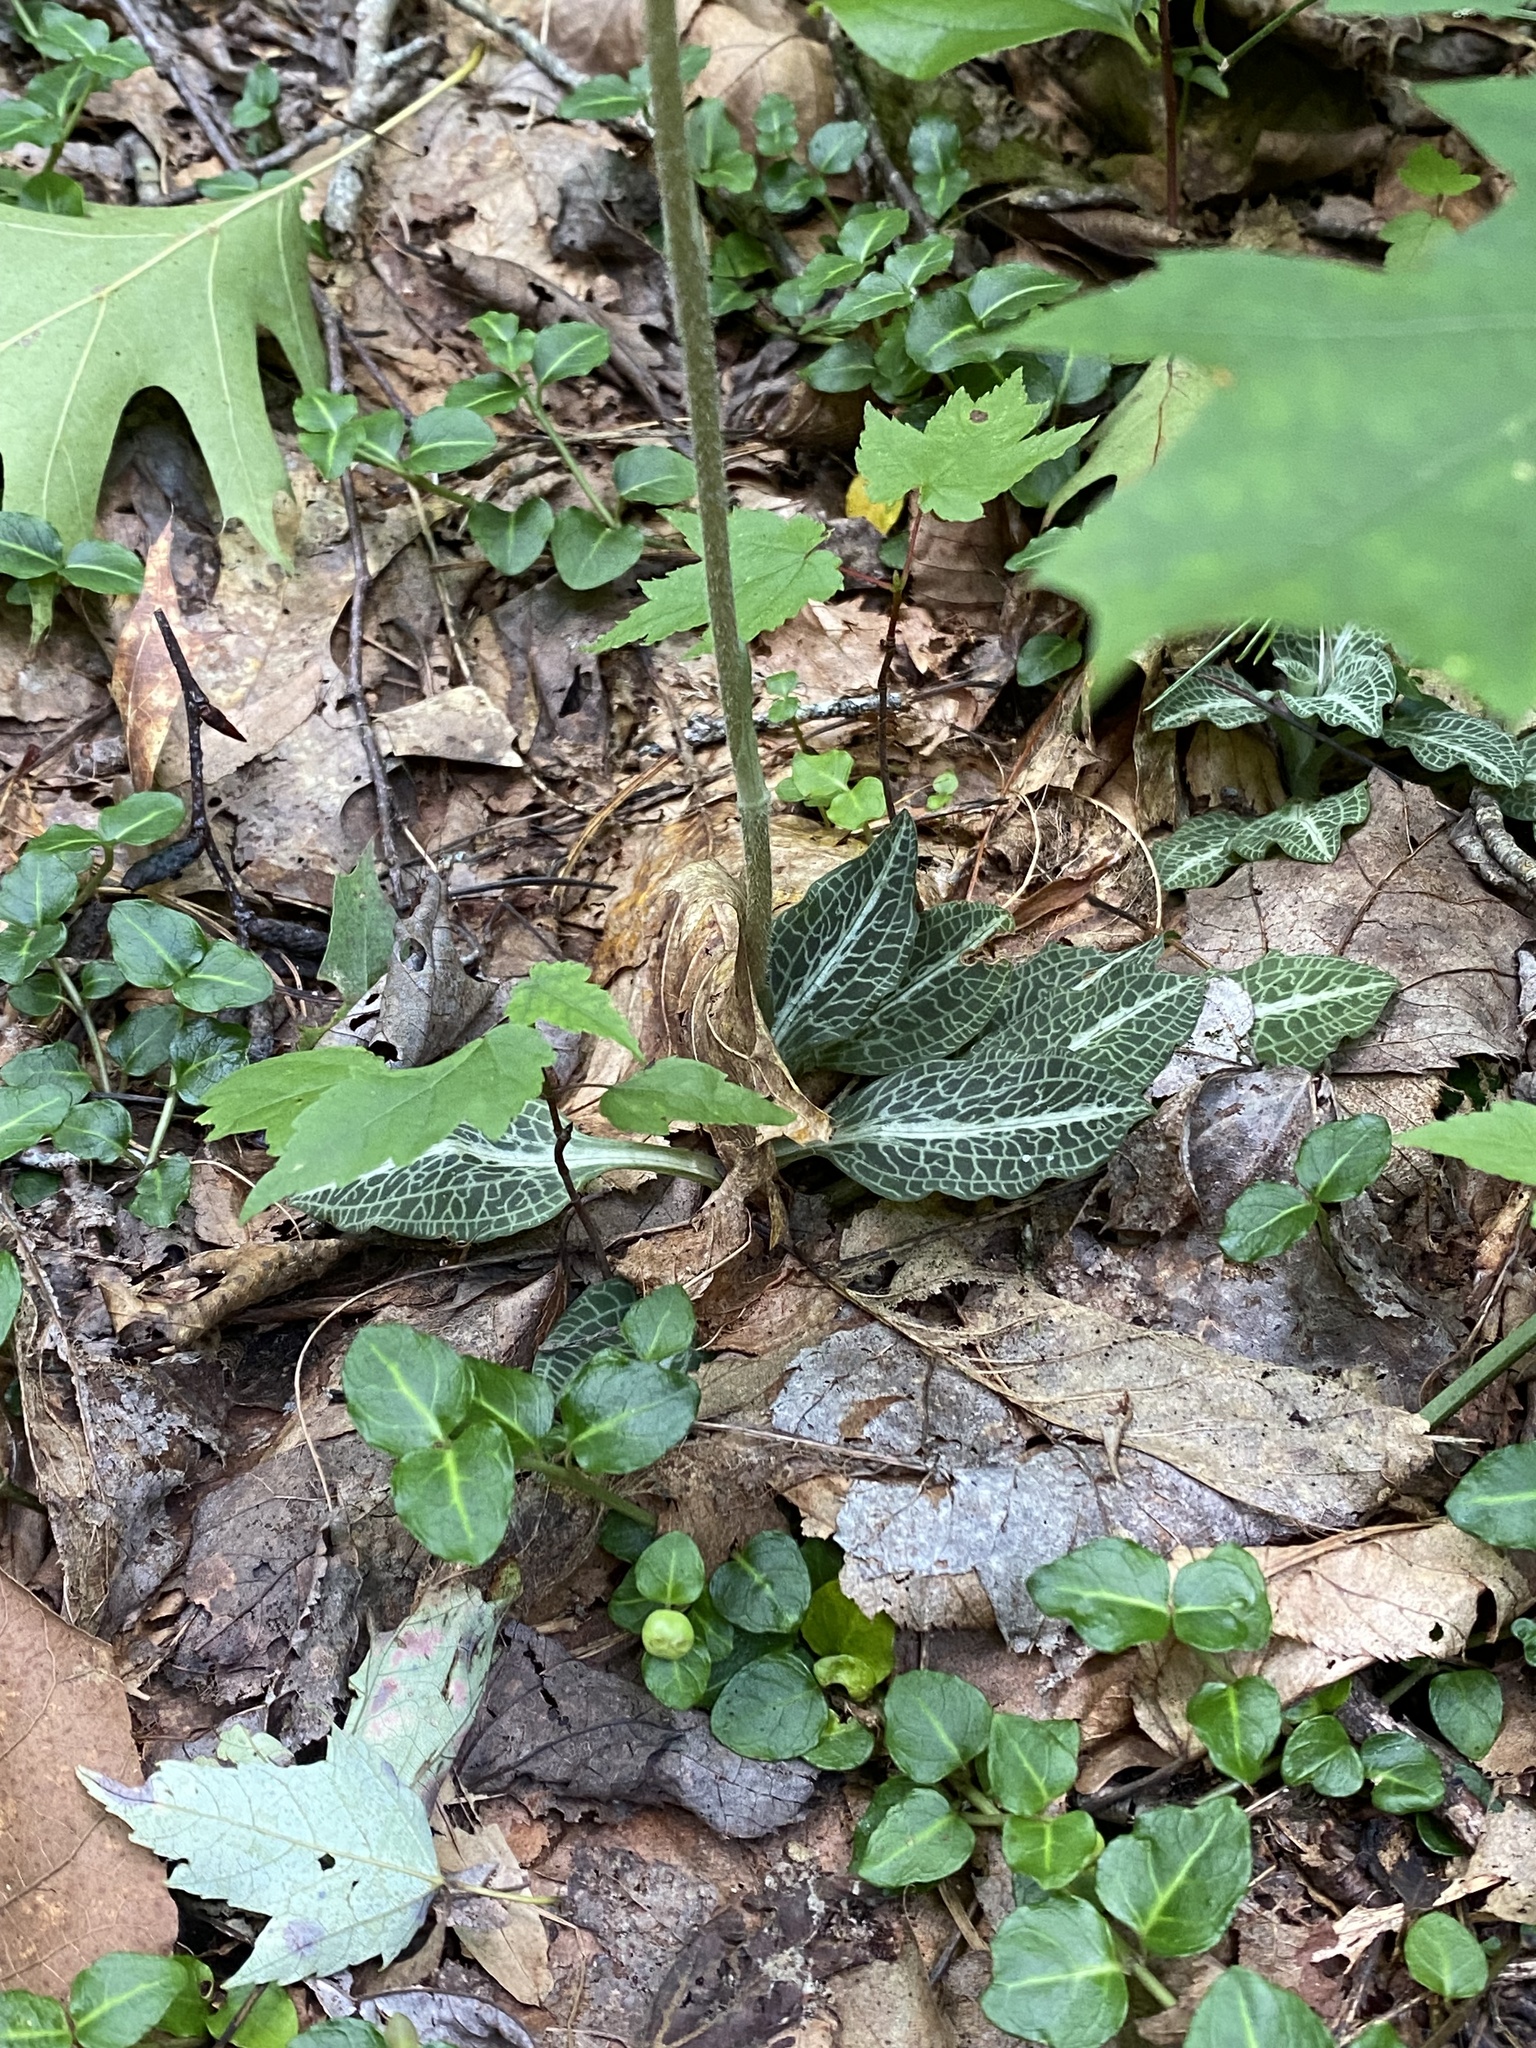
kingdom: Plantae
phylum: Tracheophyta
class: Liliopsida
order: Asparagales
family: Orchidaceae
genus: Goodyera
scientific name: Goodyera pubescens
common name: Downy rattlesnake-plantain
